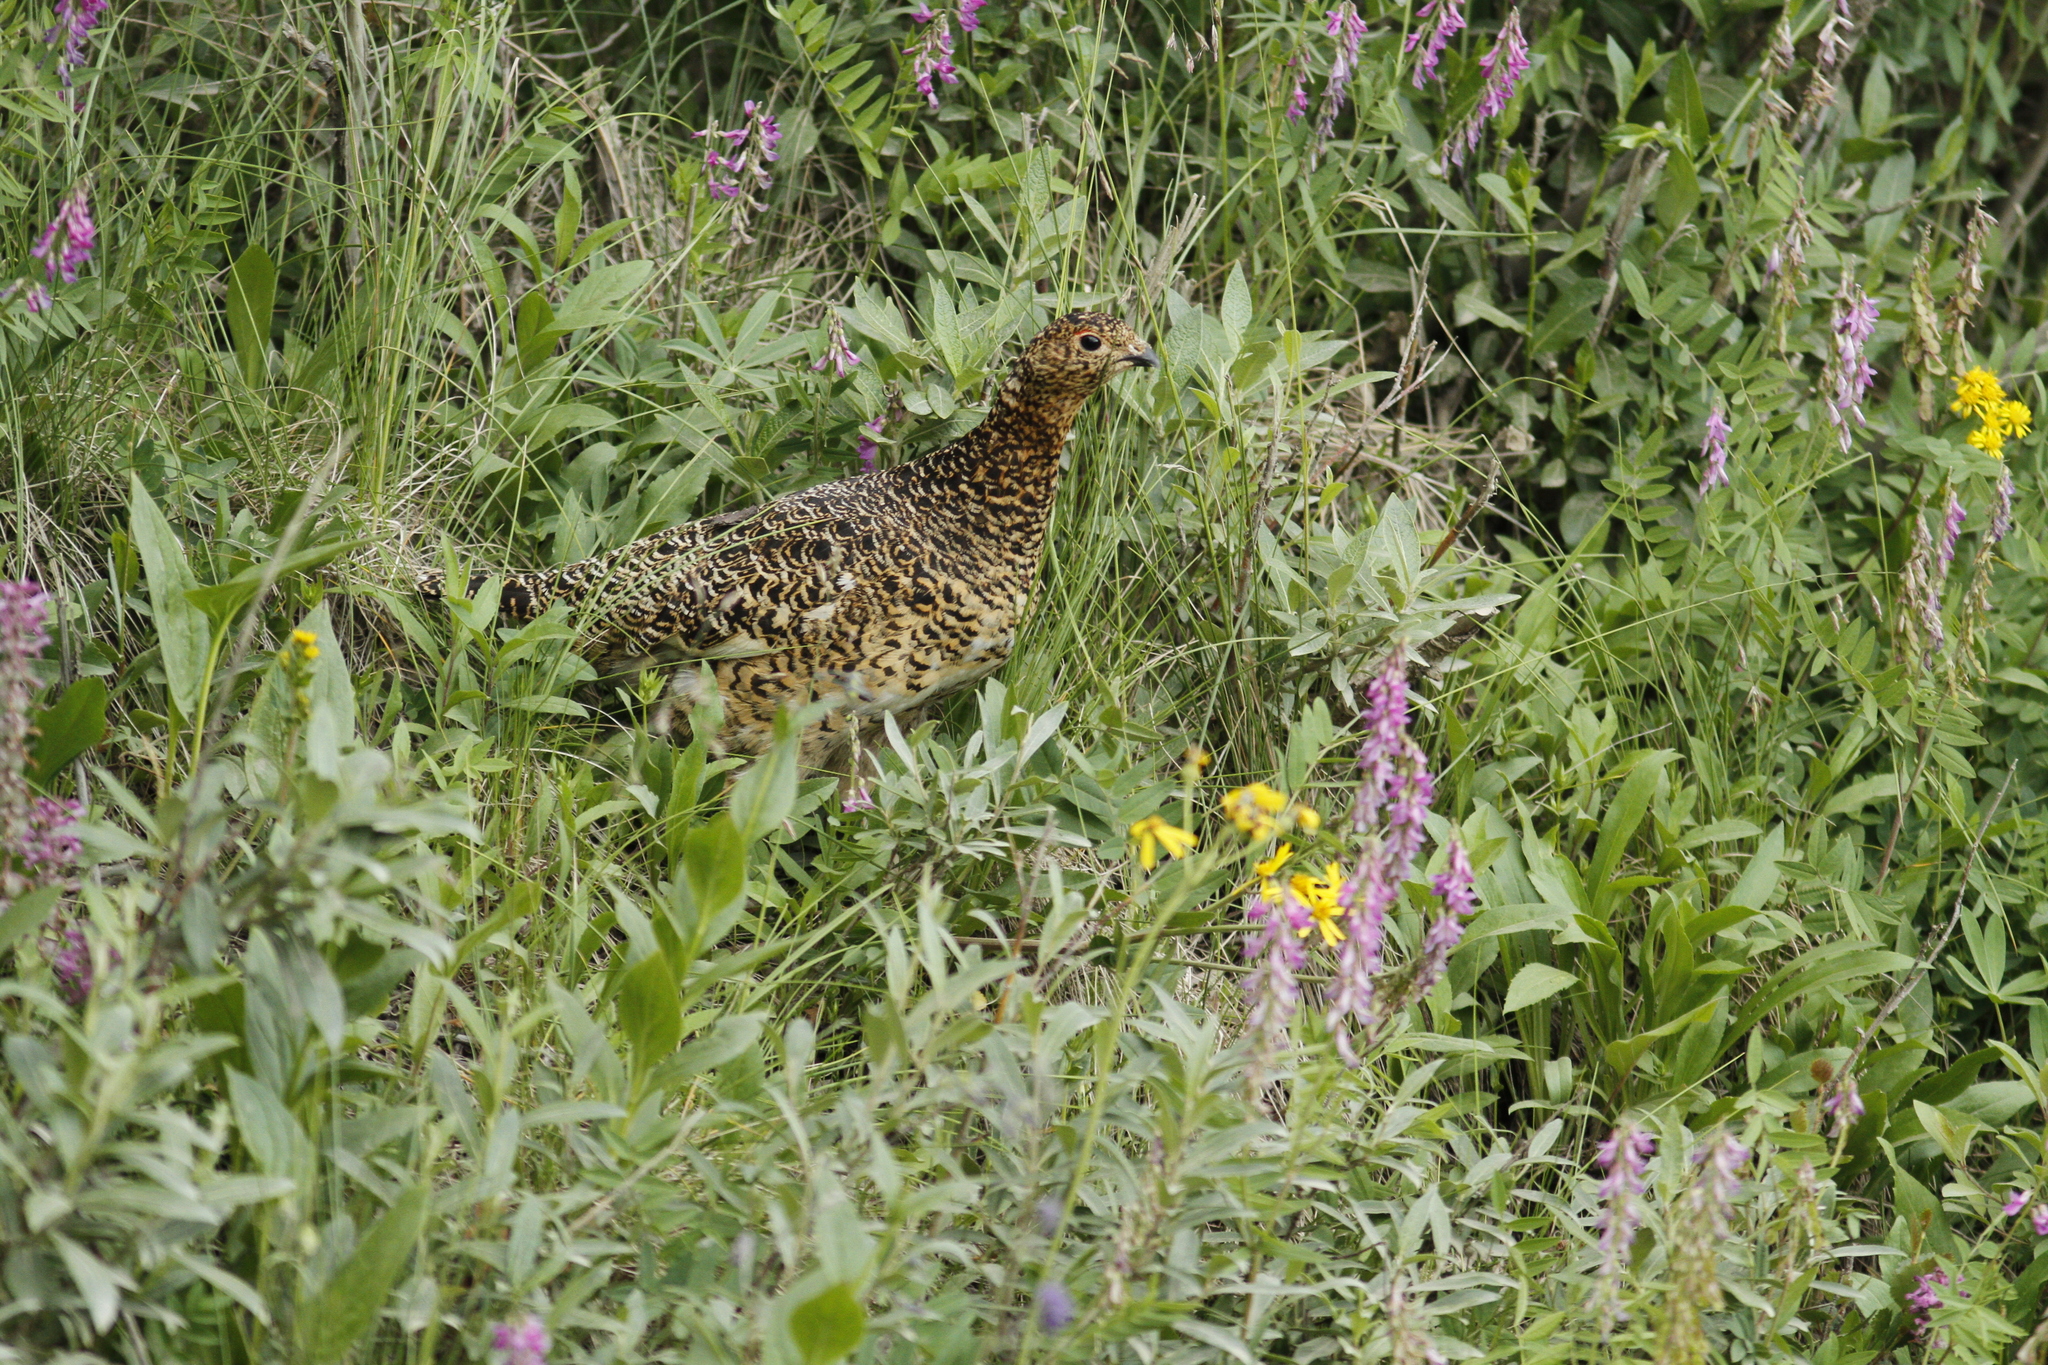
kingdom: Animalia
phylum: Chordata
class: Aves
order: Galliformes
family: Phasianidae
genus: Lagopus
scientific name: Lagopus lagopus
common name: Willow ptarmigan
